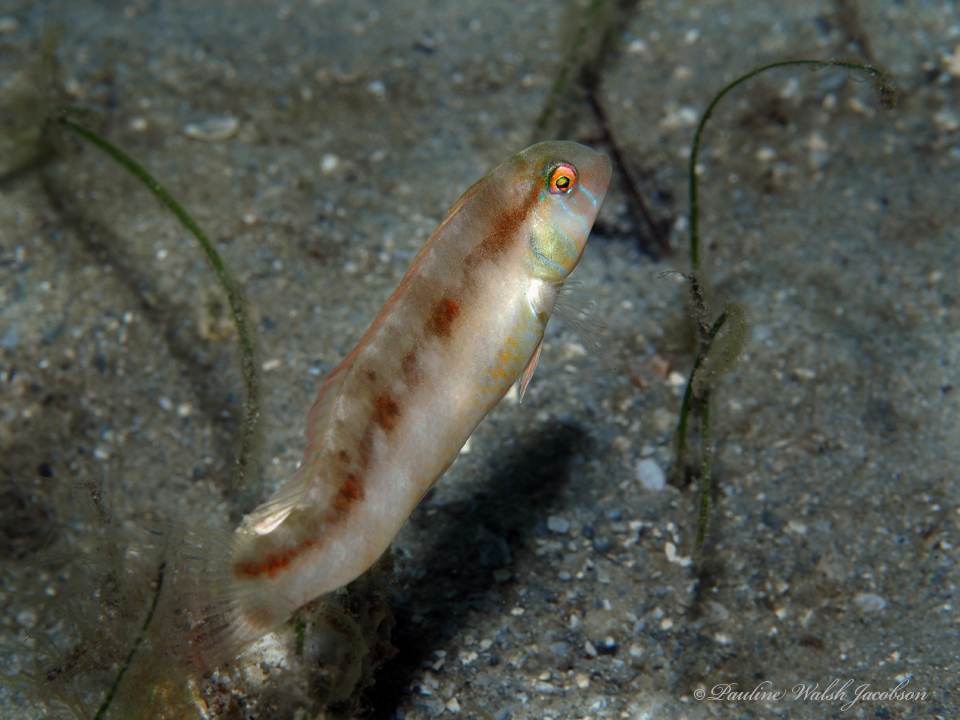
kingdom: Animalia
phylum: Chordata
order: Perciformes
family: Labridae
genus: Xyrichtys
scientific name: Xyrichtys novacula
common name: Pearly razorfish
